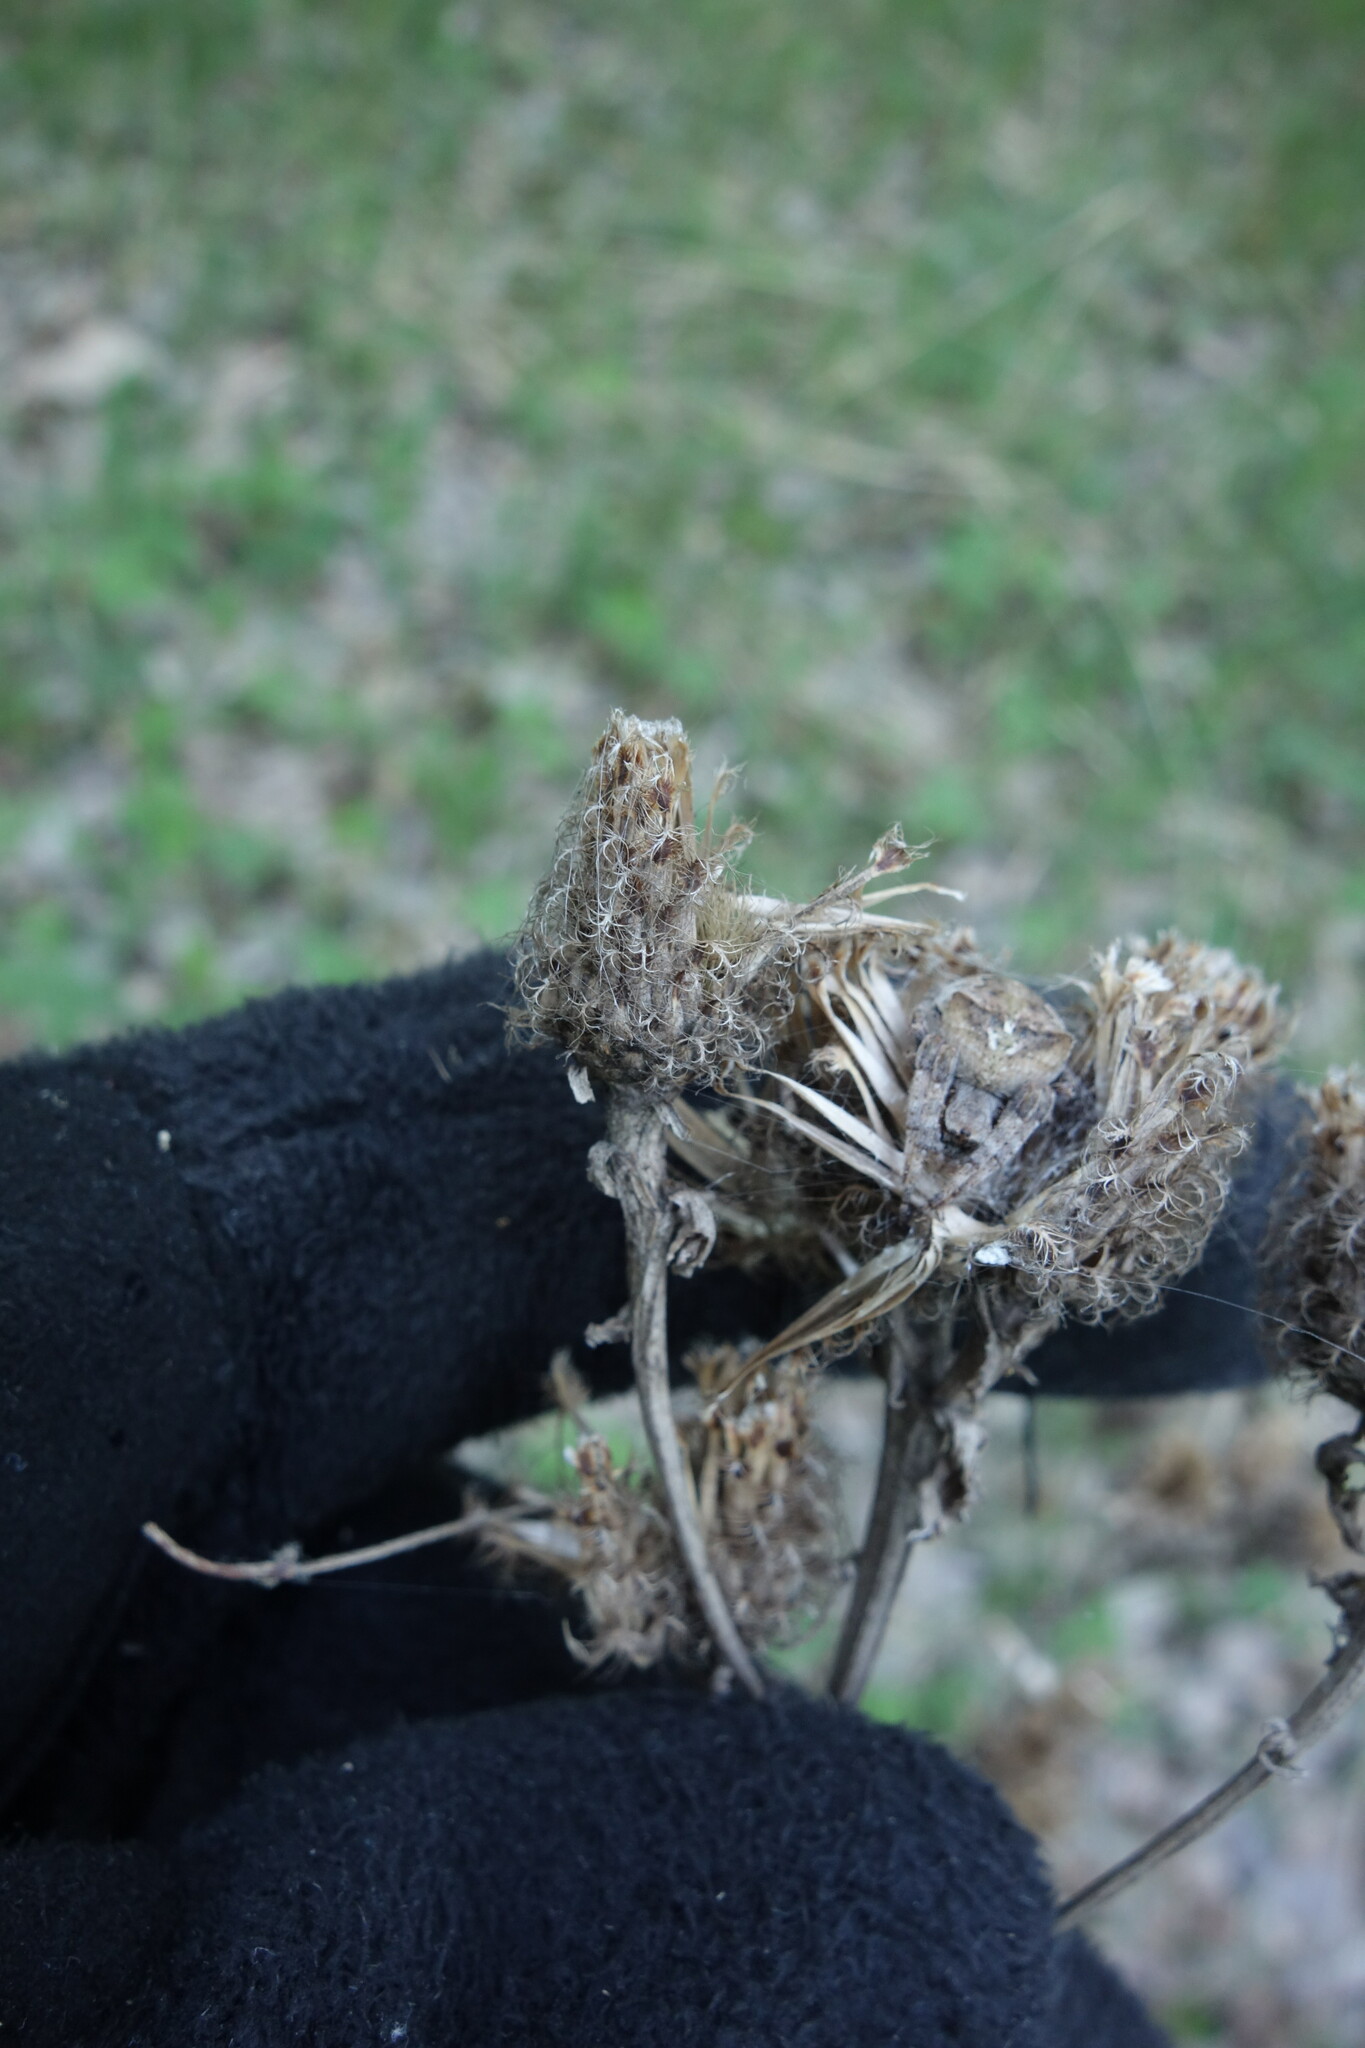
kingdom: Plantae
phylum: Tracheophyta
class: Magnoliopsida
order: Asterales
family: Asteraceae
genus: Centaurea
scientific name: Centaurea pseudophrygia
